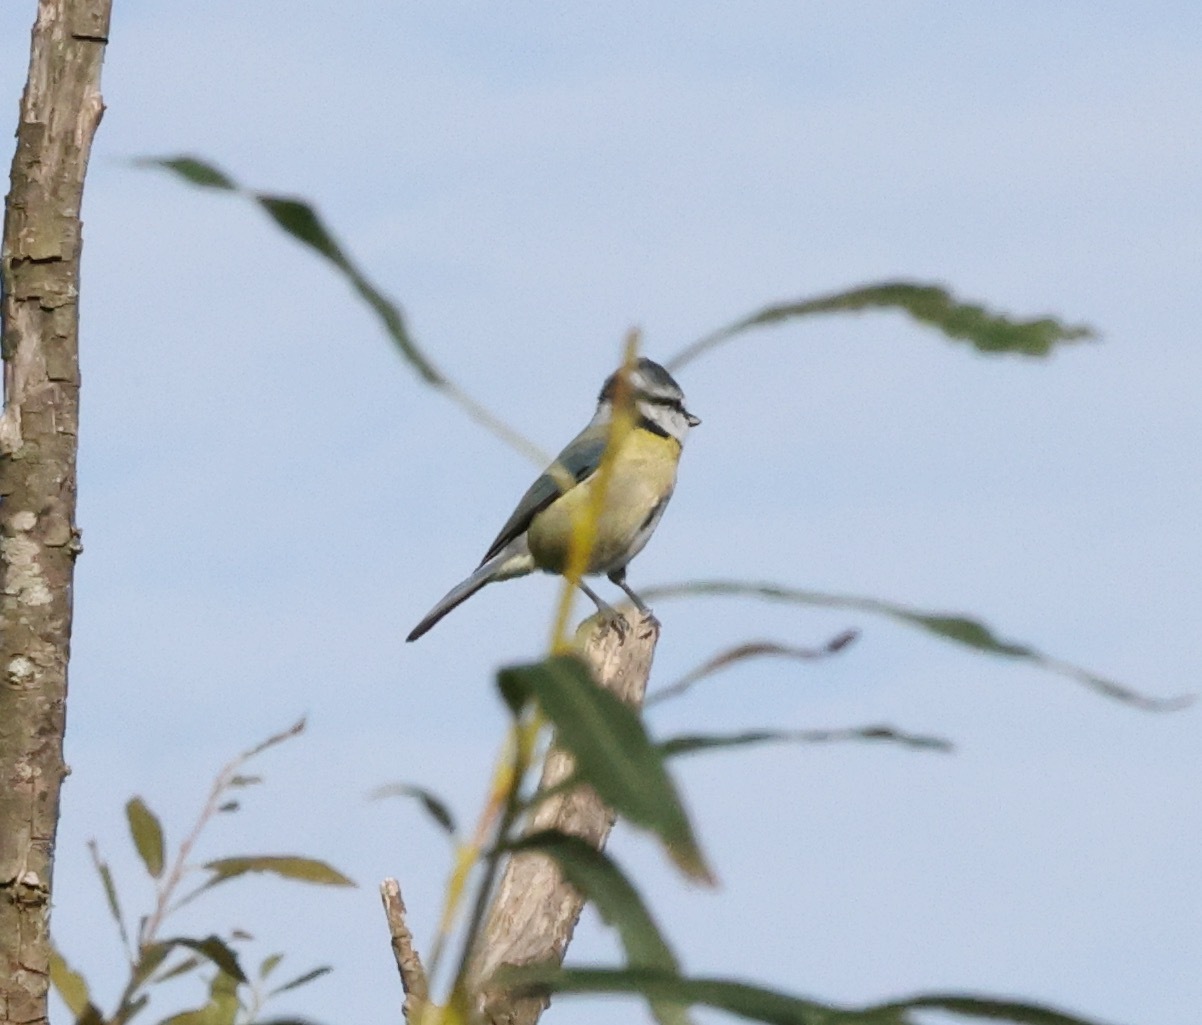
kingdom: Animalia
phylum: Chordata
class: Aves
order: Passeriformes
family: Paridae
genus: Cyanistes
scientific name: Cyanistes caeruleus
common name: Eurasian blue tit
